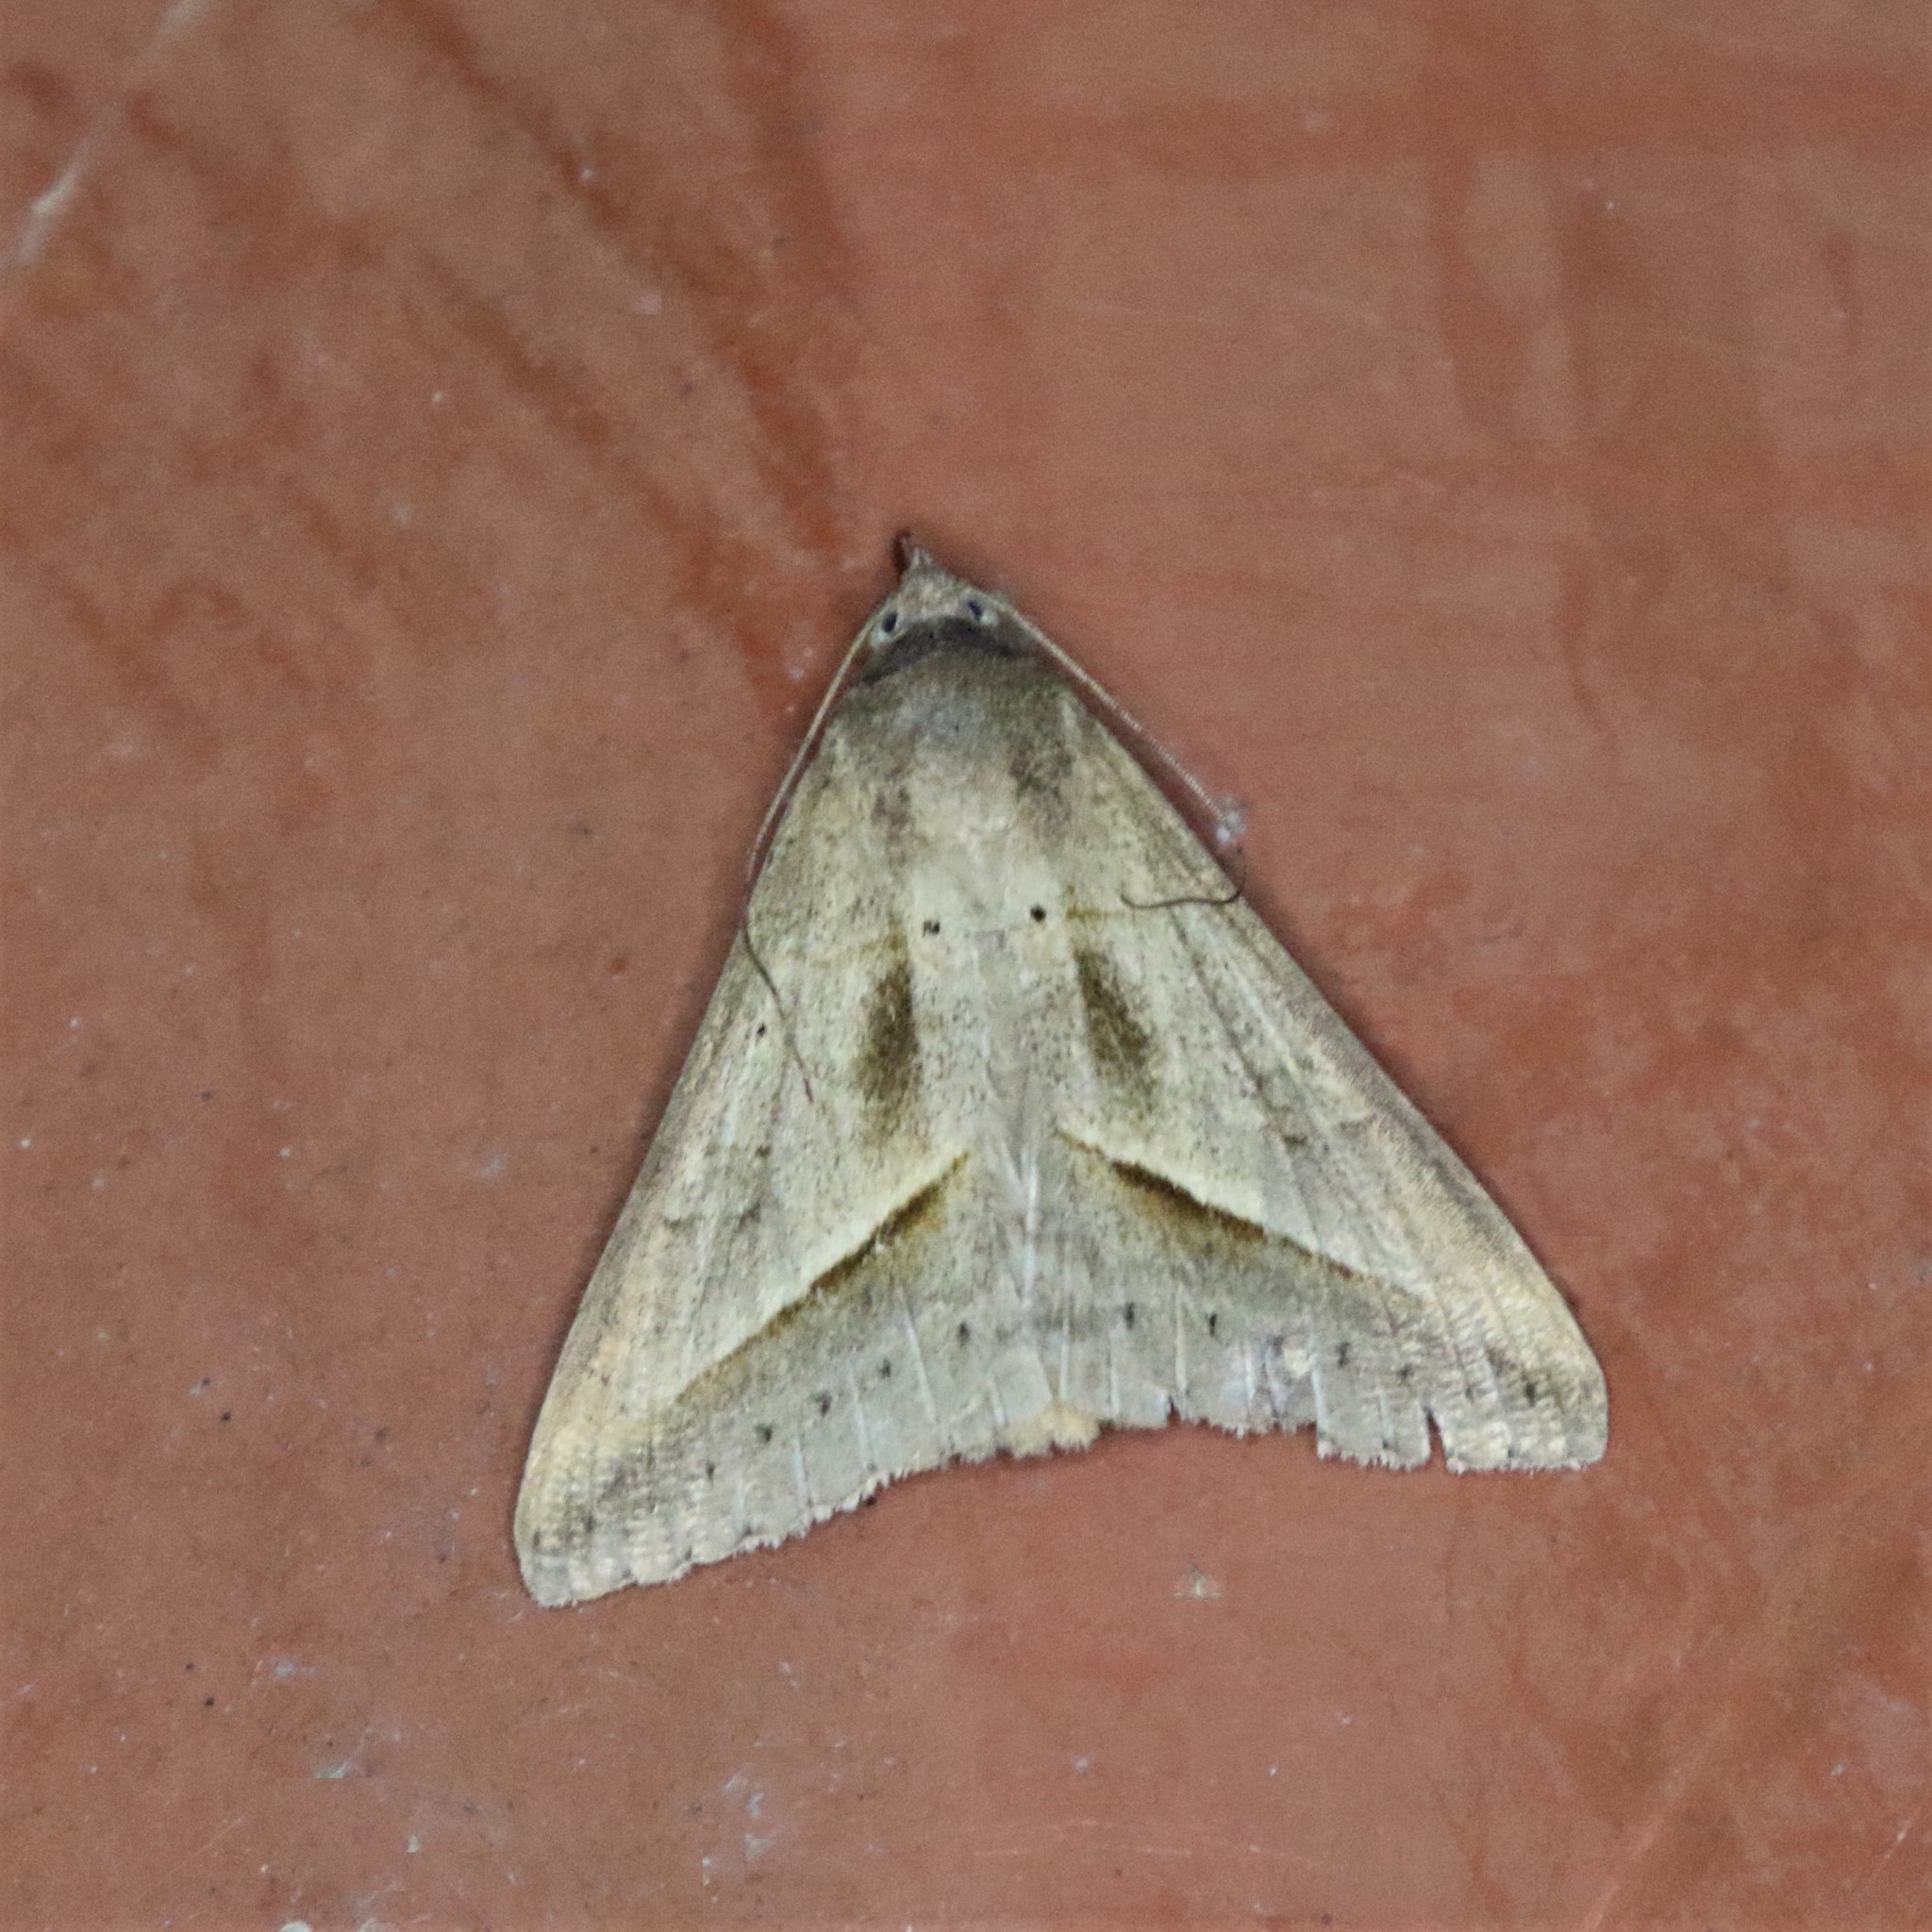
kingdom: Animalia
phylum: Arthropoda
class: Insecta
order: Lepidoptera
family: Erebidae
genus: Mocis
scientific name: Mocis frugalis
